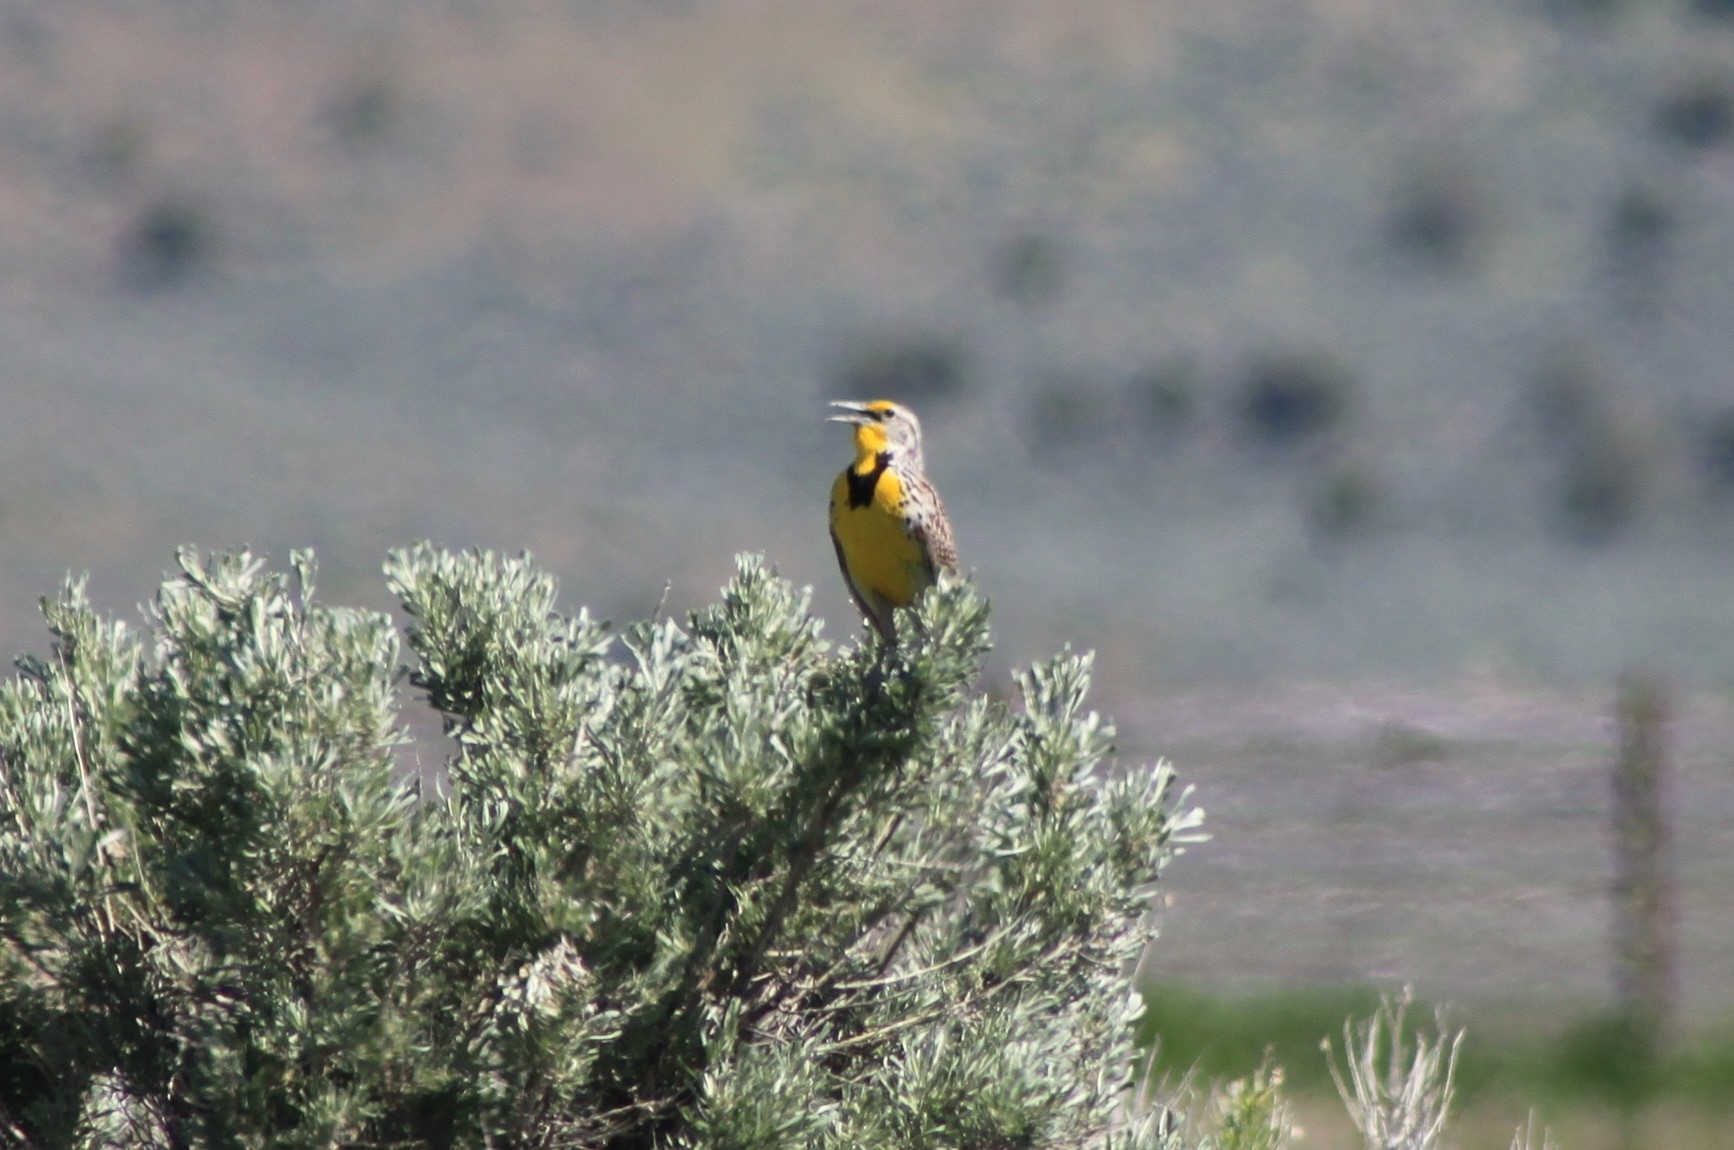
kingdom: Animalia
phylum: Chordata
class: Aves
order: Passeriformes
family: Icteridae
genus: Sturnella
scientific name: Sturnella neglecta
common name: Western meadowlark
